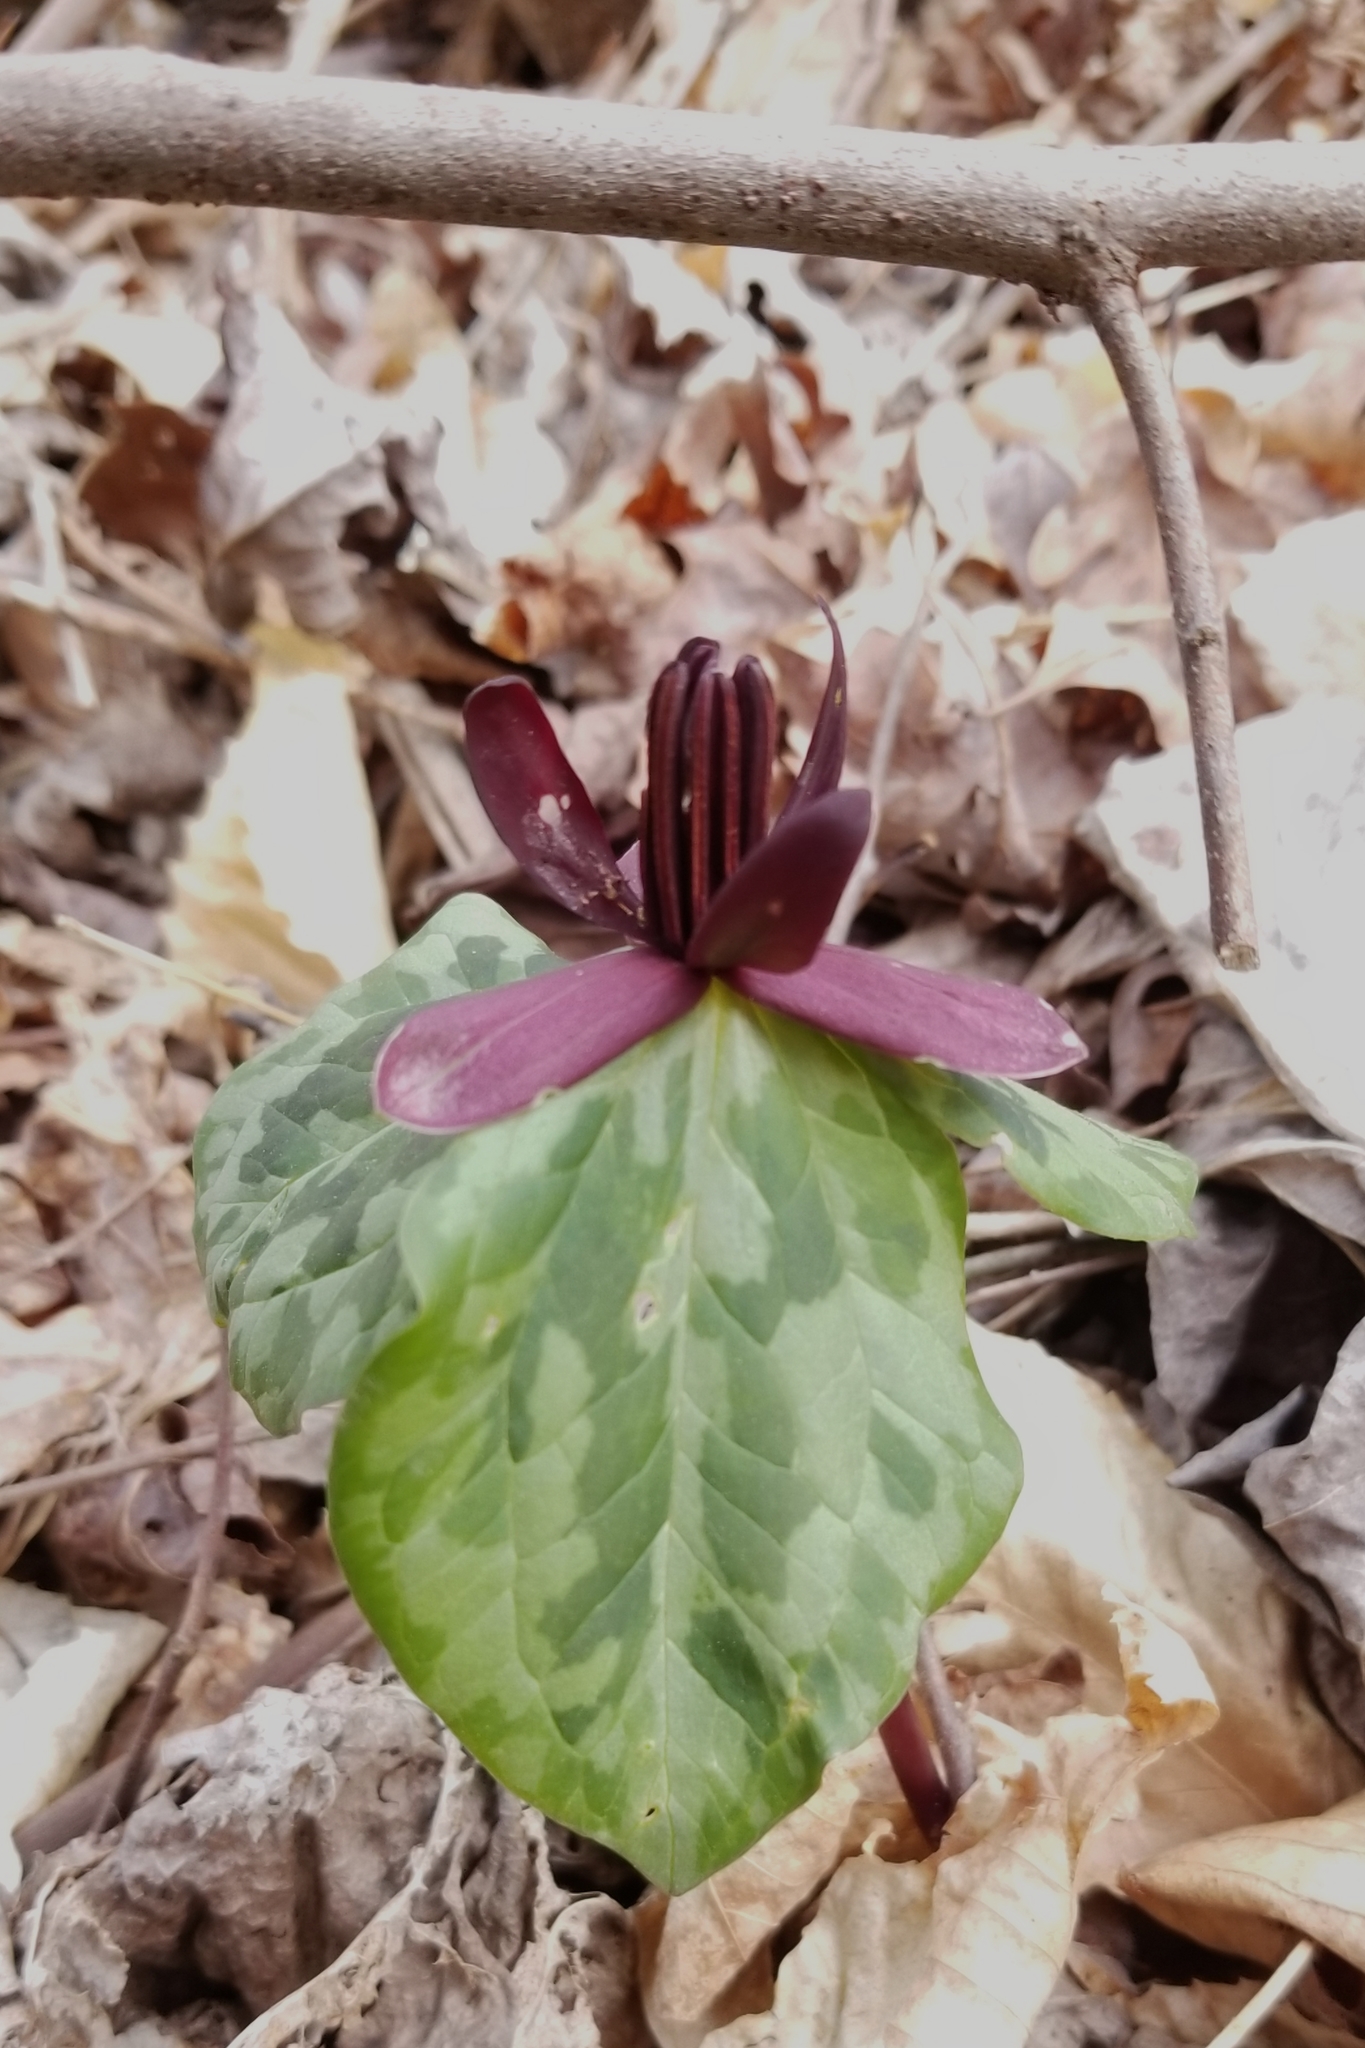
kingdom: Plantae
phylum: Tracheophyta
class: Liliopsida
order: Liliales
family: Melanthiaceae
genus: Trillium
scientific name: Trillium stamineum
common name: Blue ridge wakerobin
